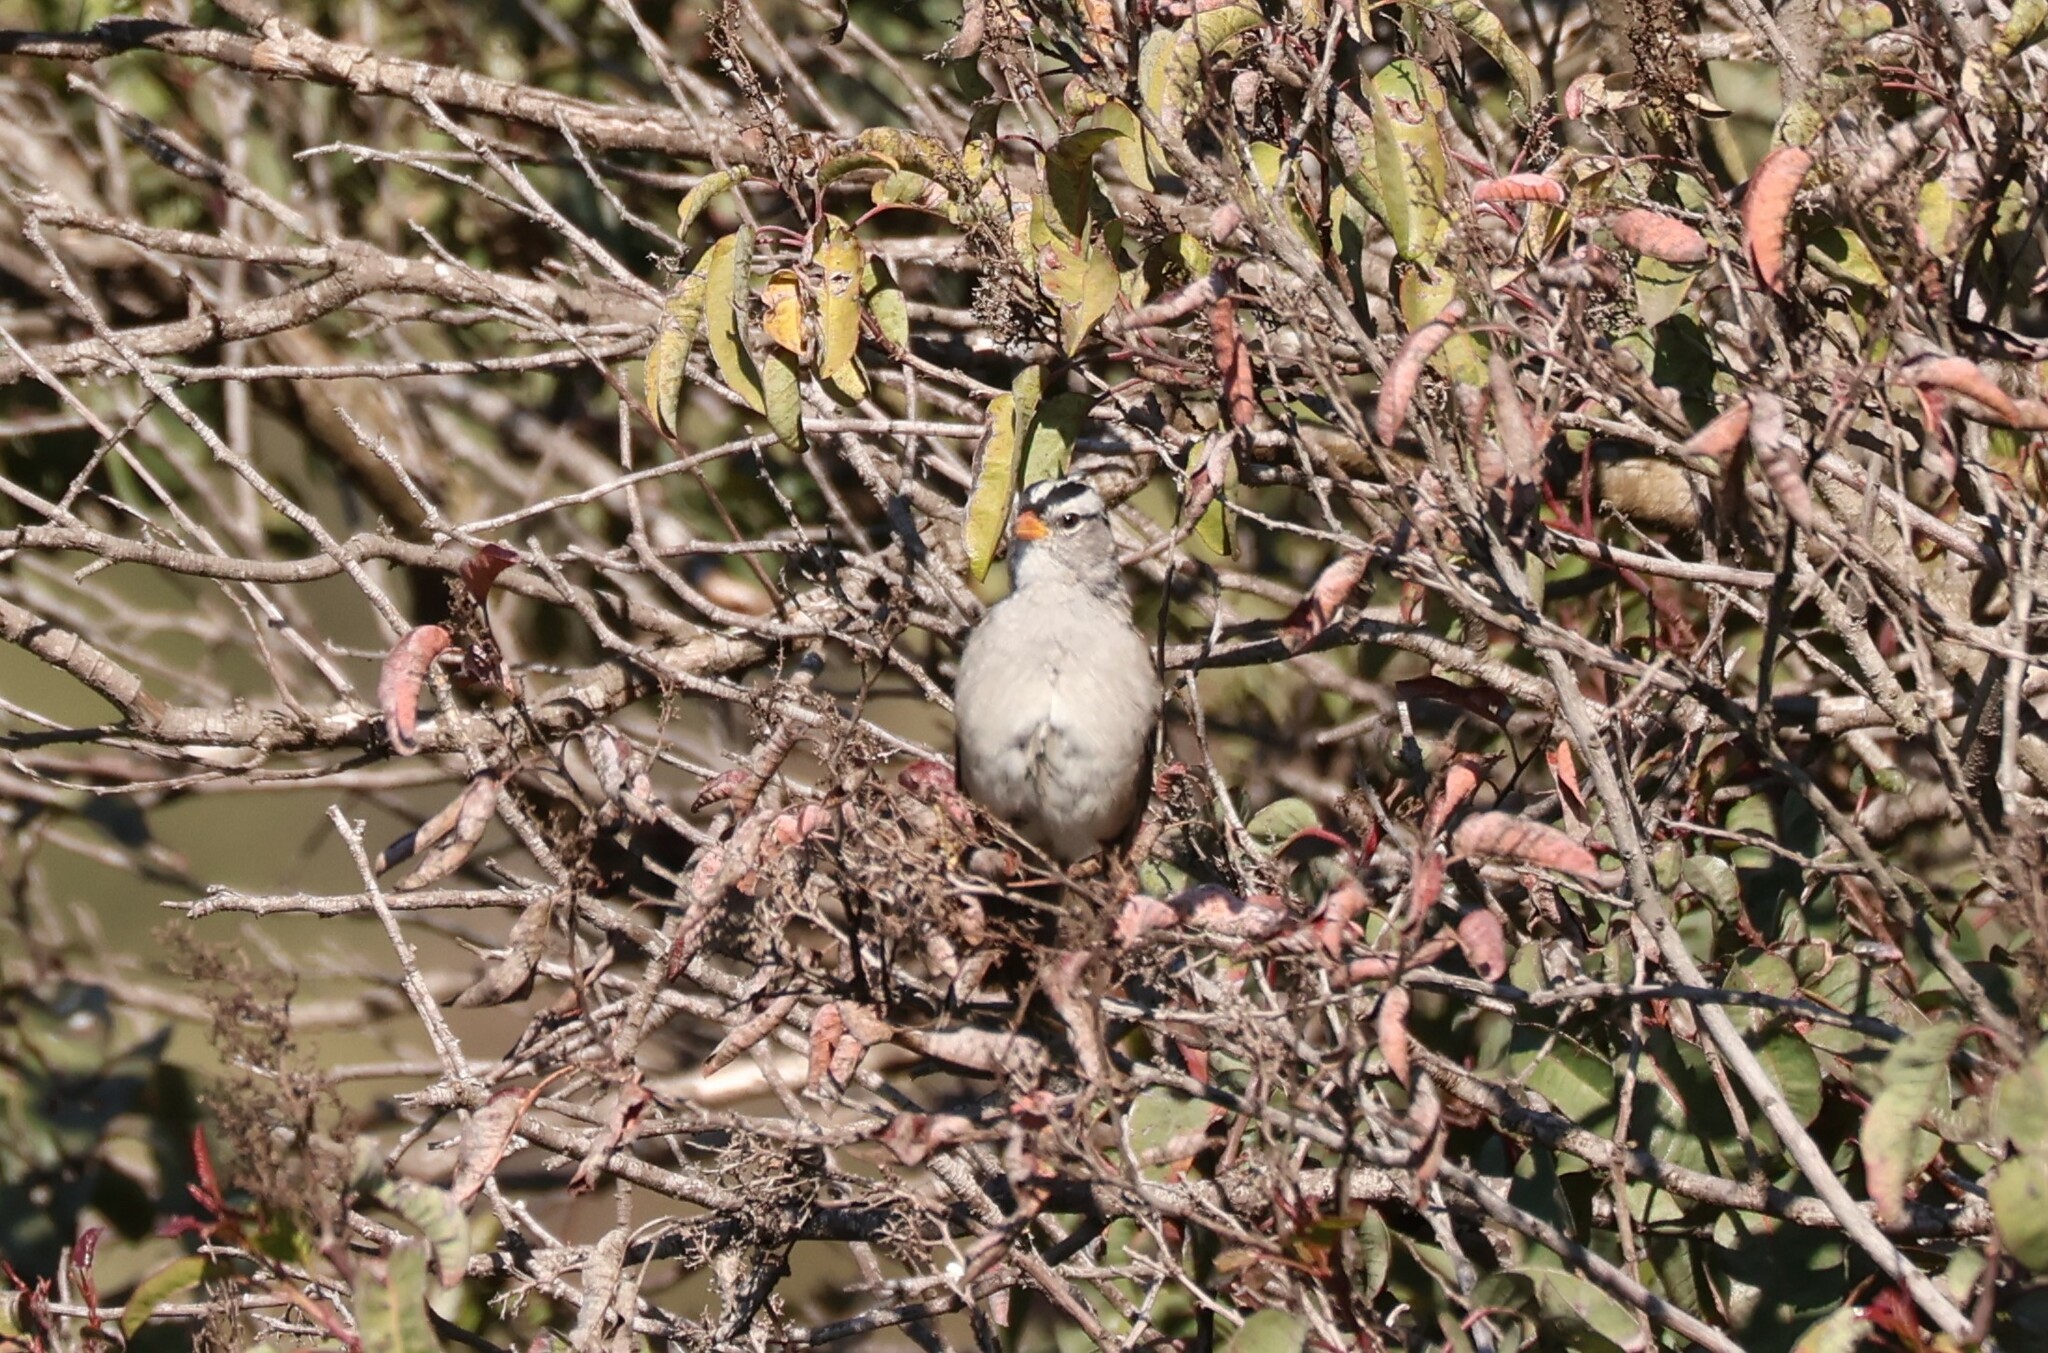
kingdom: Animalia
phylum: Chordata
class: Aves
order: Passeriformes
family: Passerellidae
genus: Zonotrichia
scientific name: Zonotrichia leucophrys
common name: White-crowned sparrow
